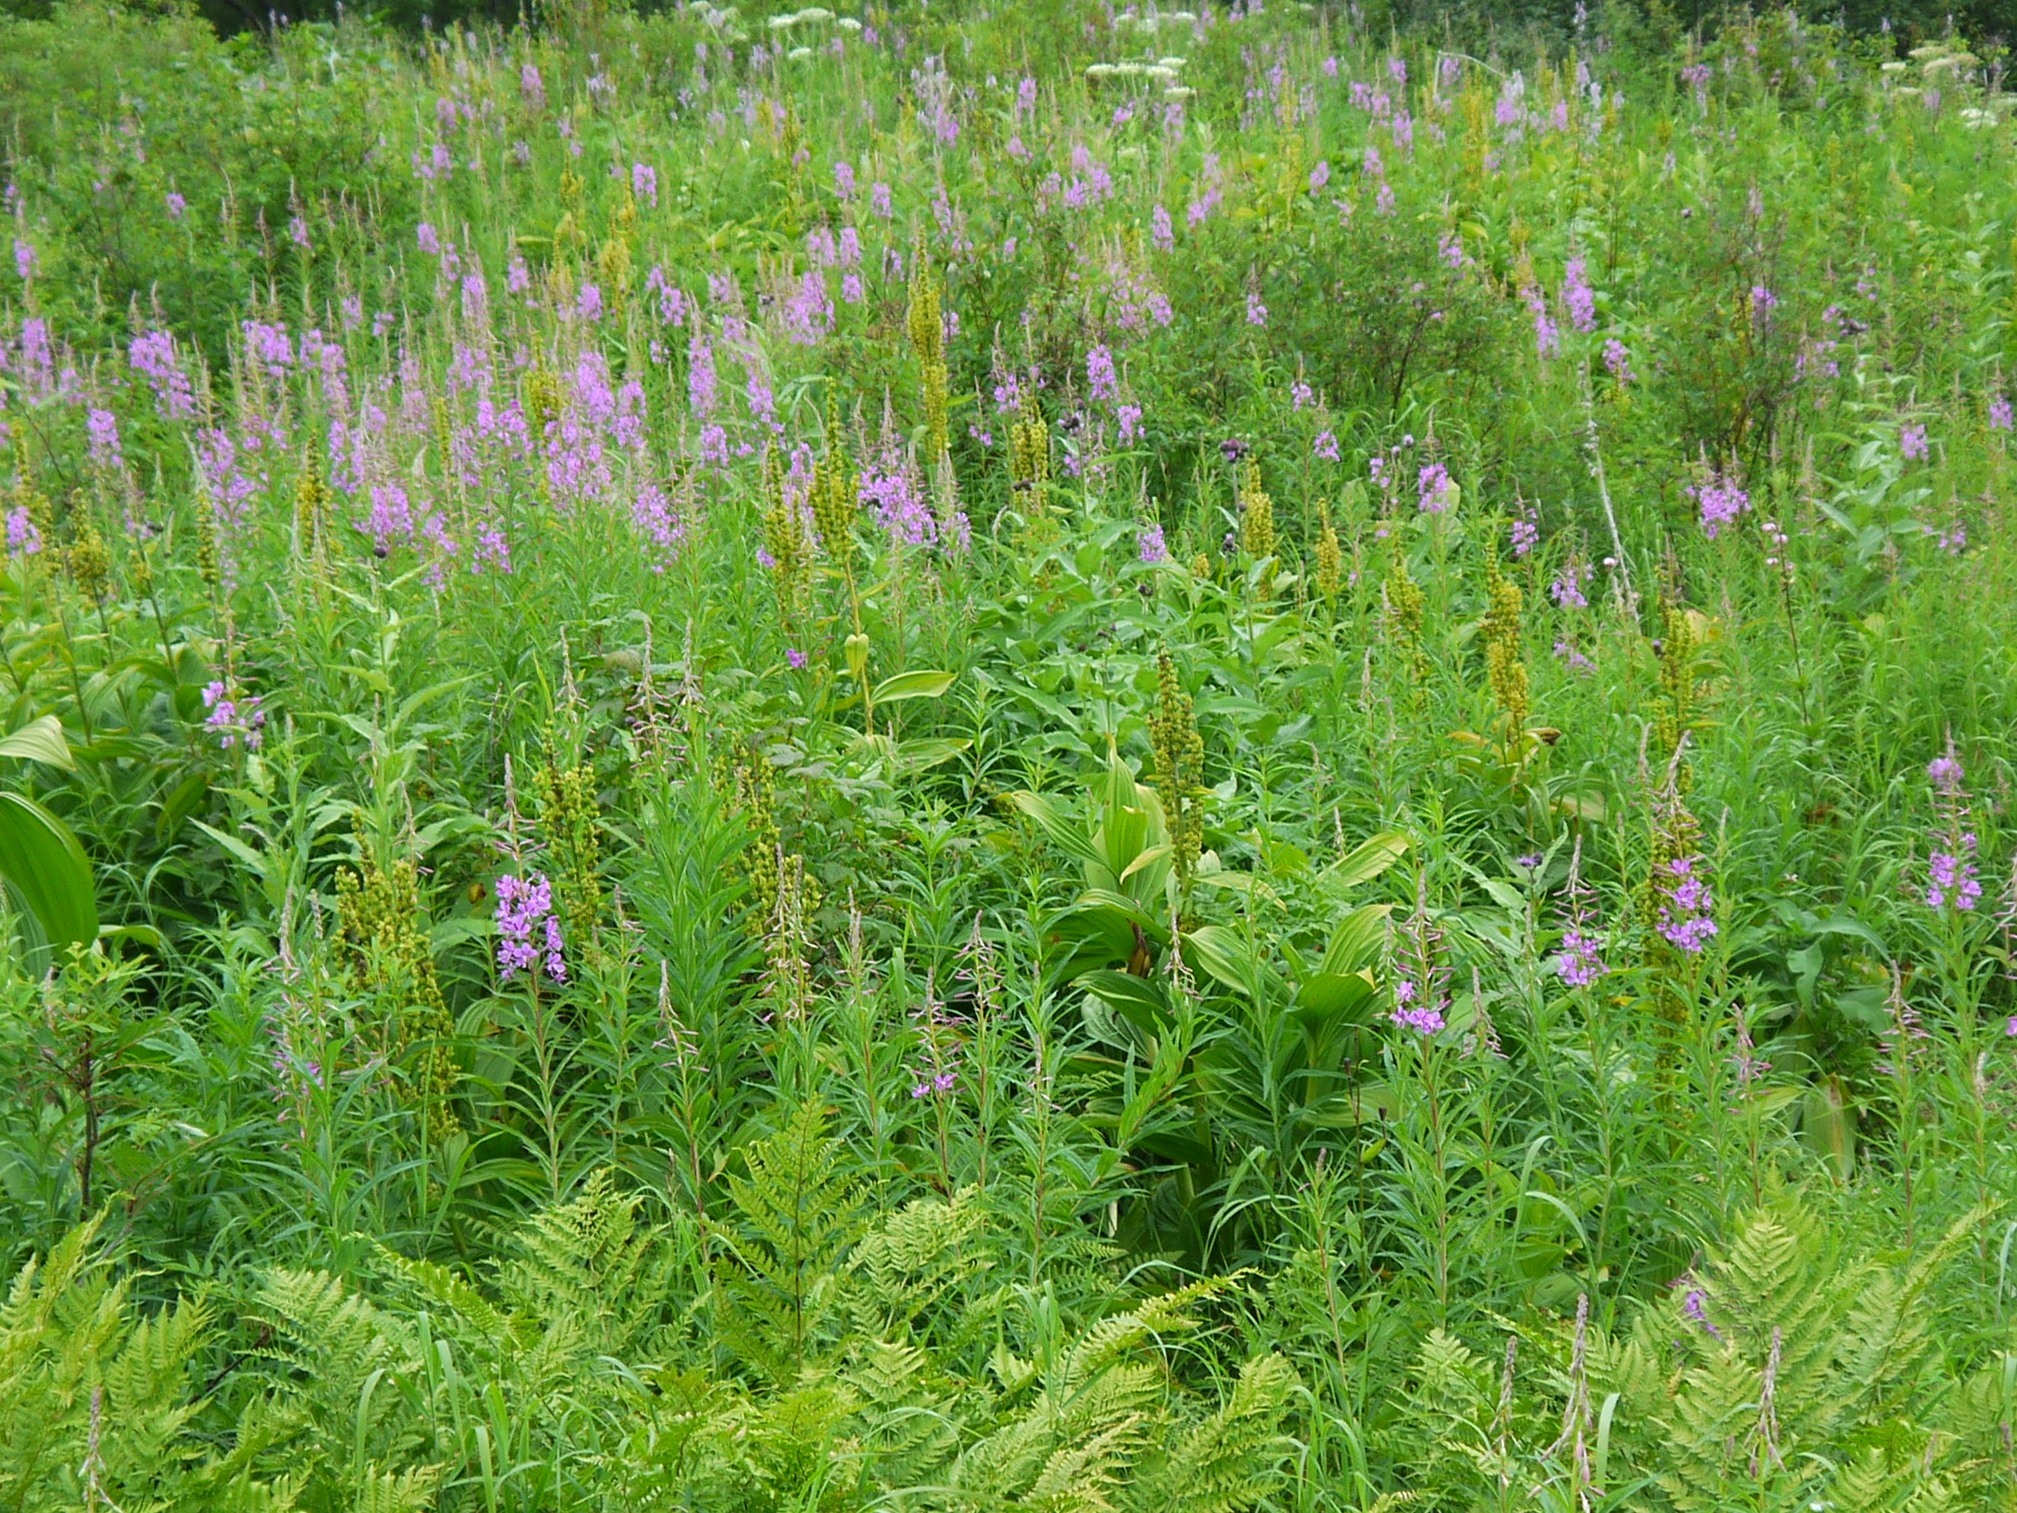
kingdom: Plantae
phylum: Tracheophyta
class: Liliopsida
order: Liliales
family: Melanthiaceae
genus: Veratrum
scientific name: Veratrum lobelianum
